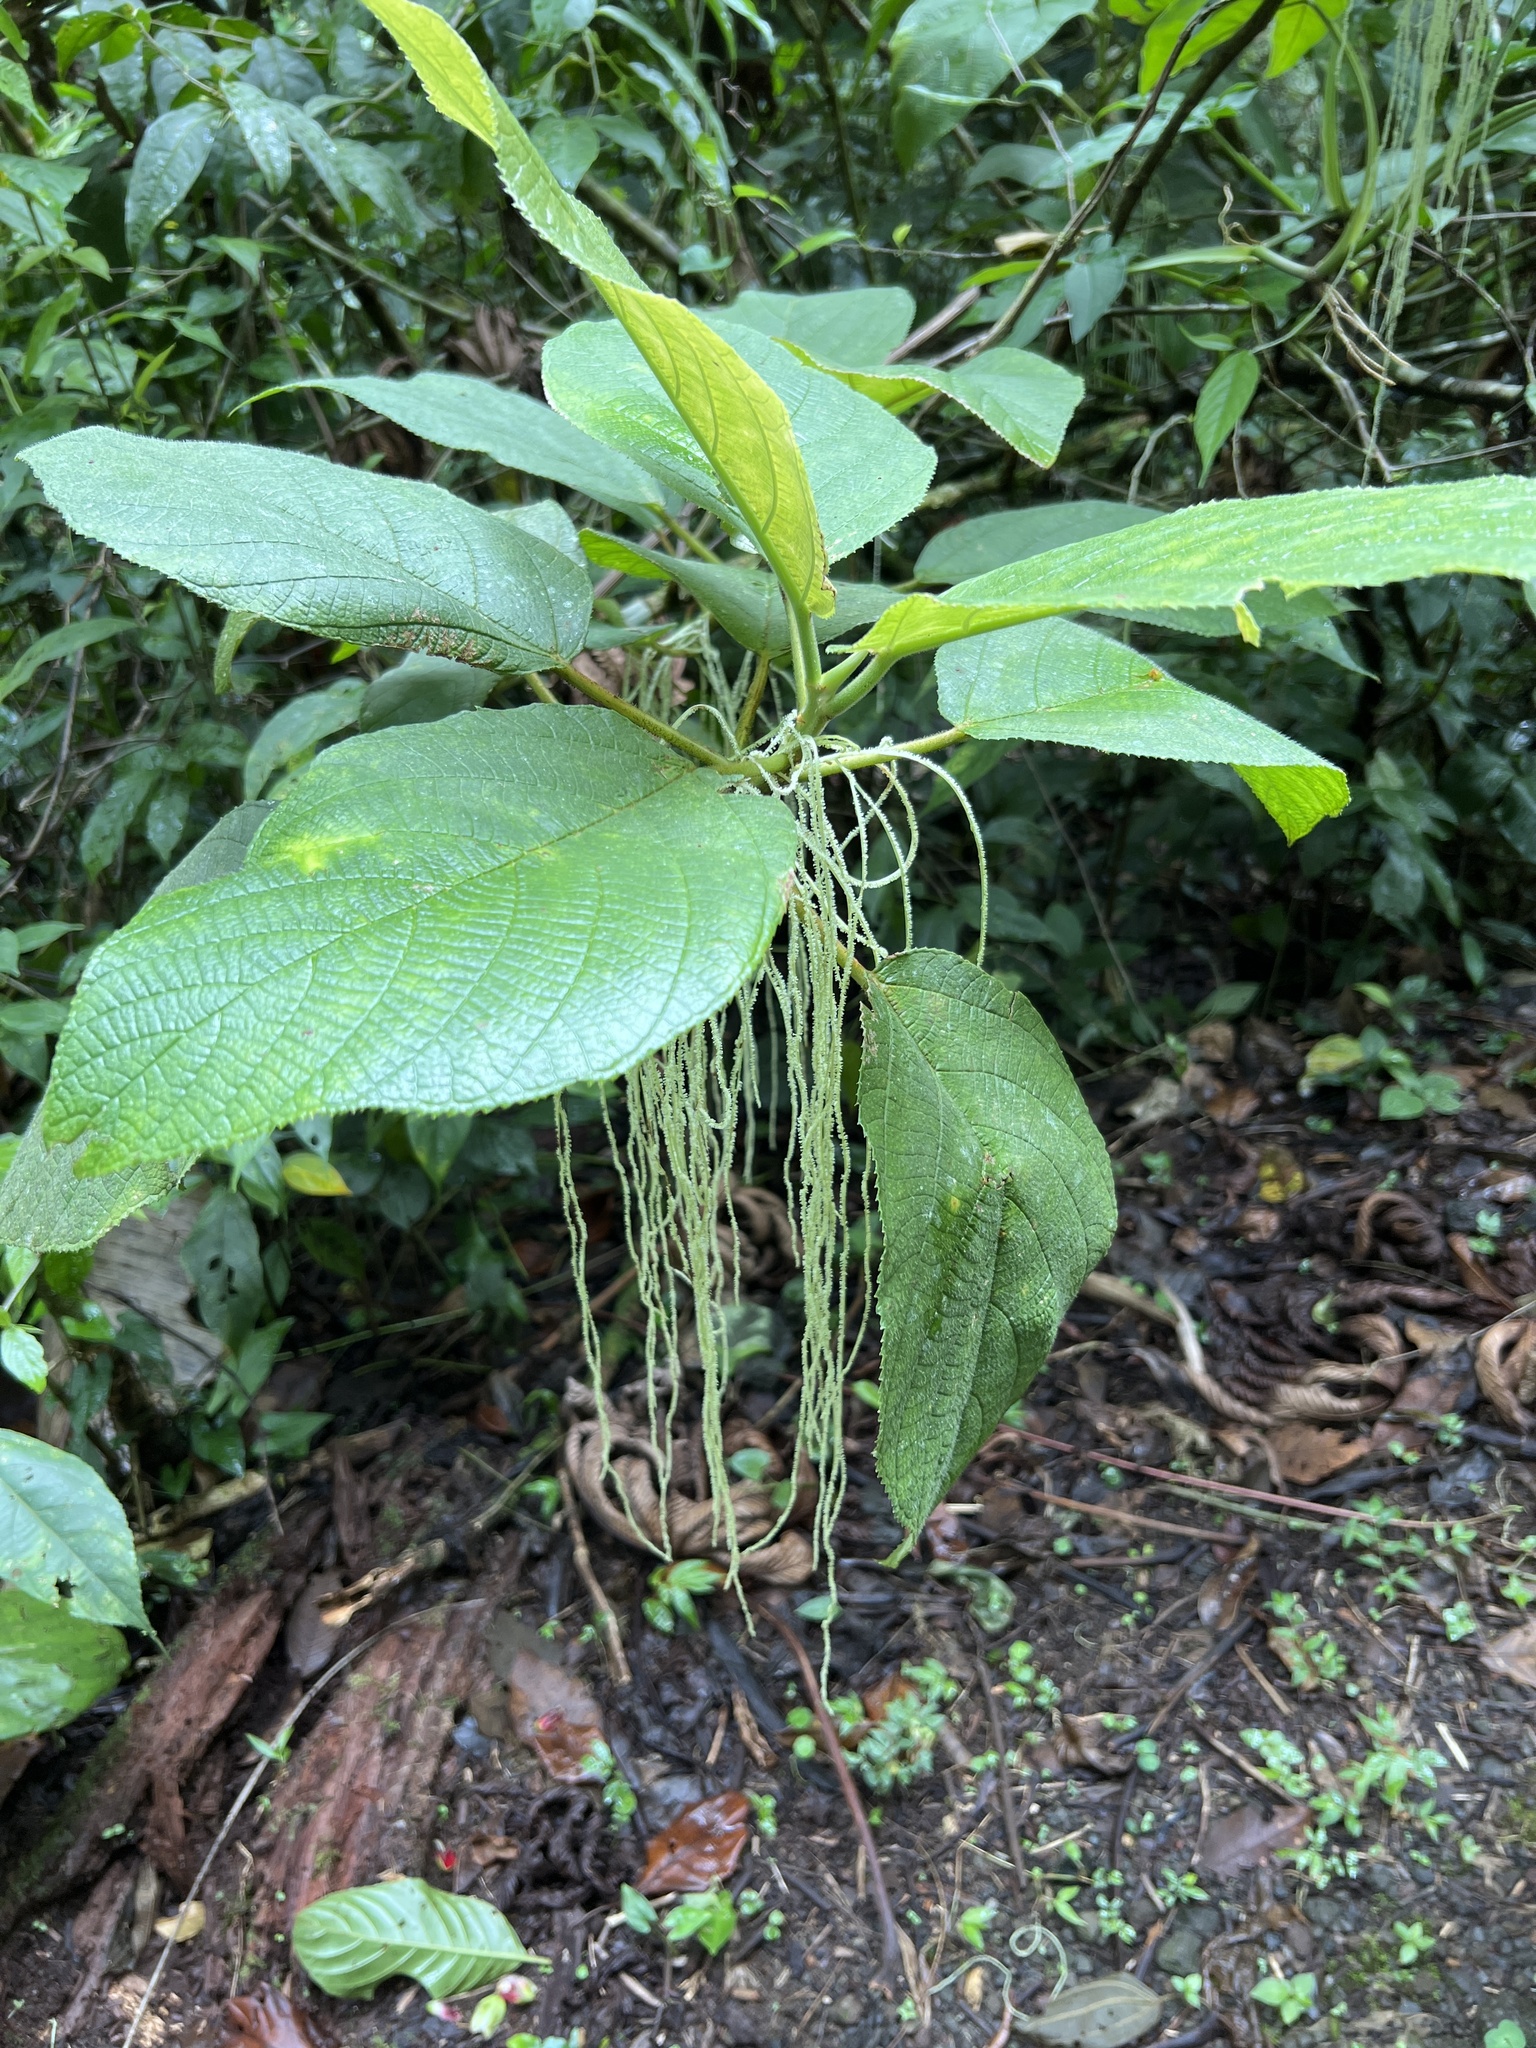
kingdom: Plantae
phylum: Tracheophyta
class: Magnoliopsida
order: Rosales
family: Urticaceae
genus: Myriocarpa
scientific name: Myriocarpa longipes
